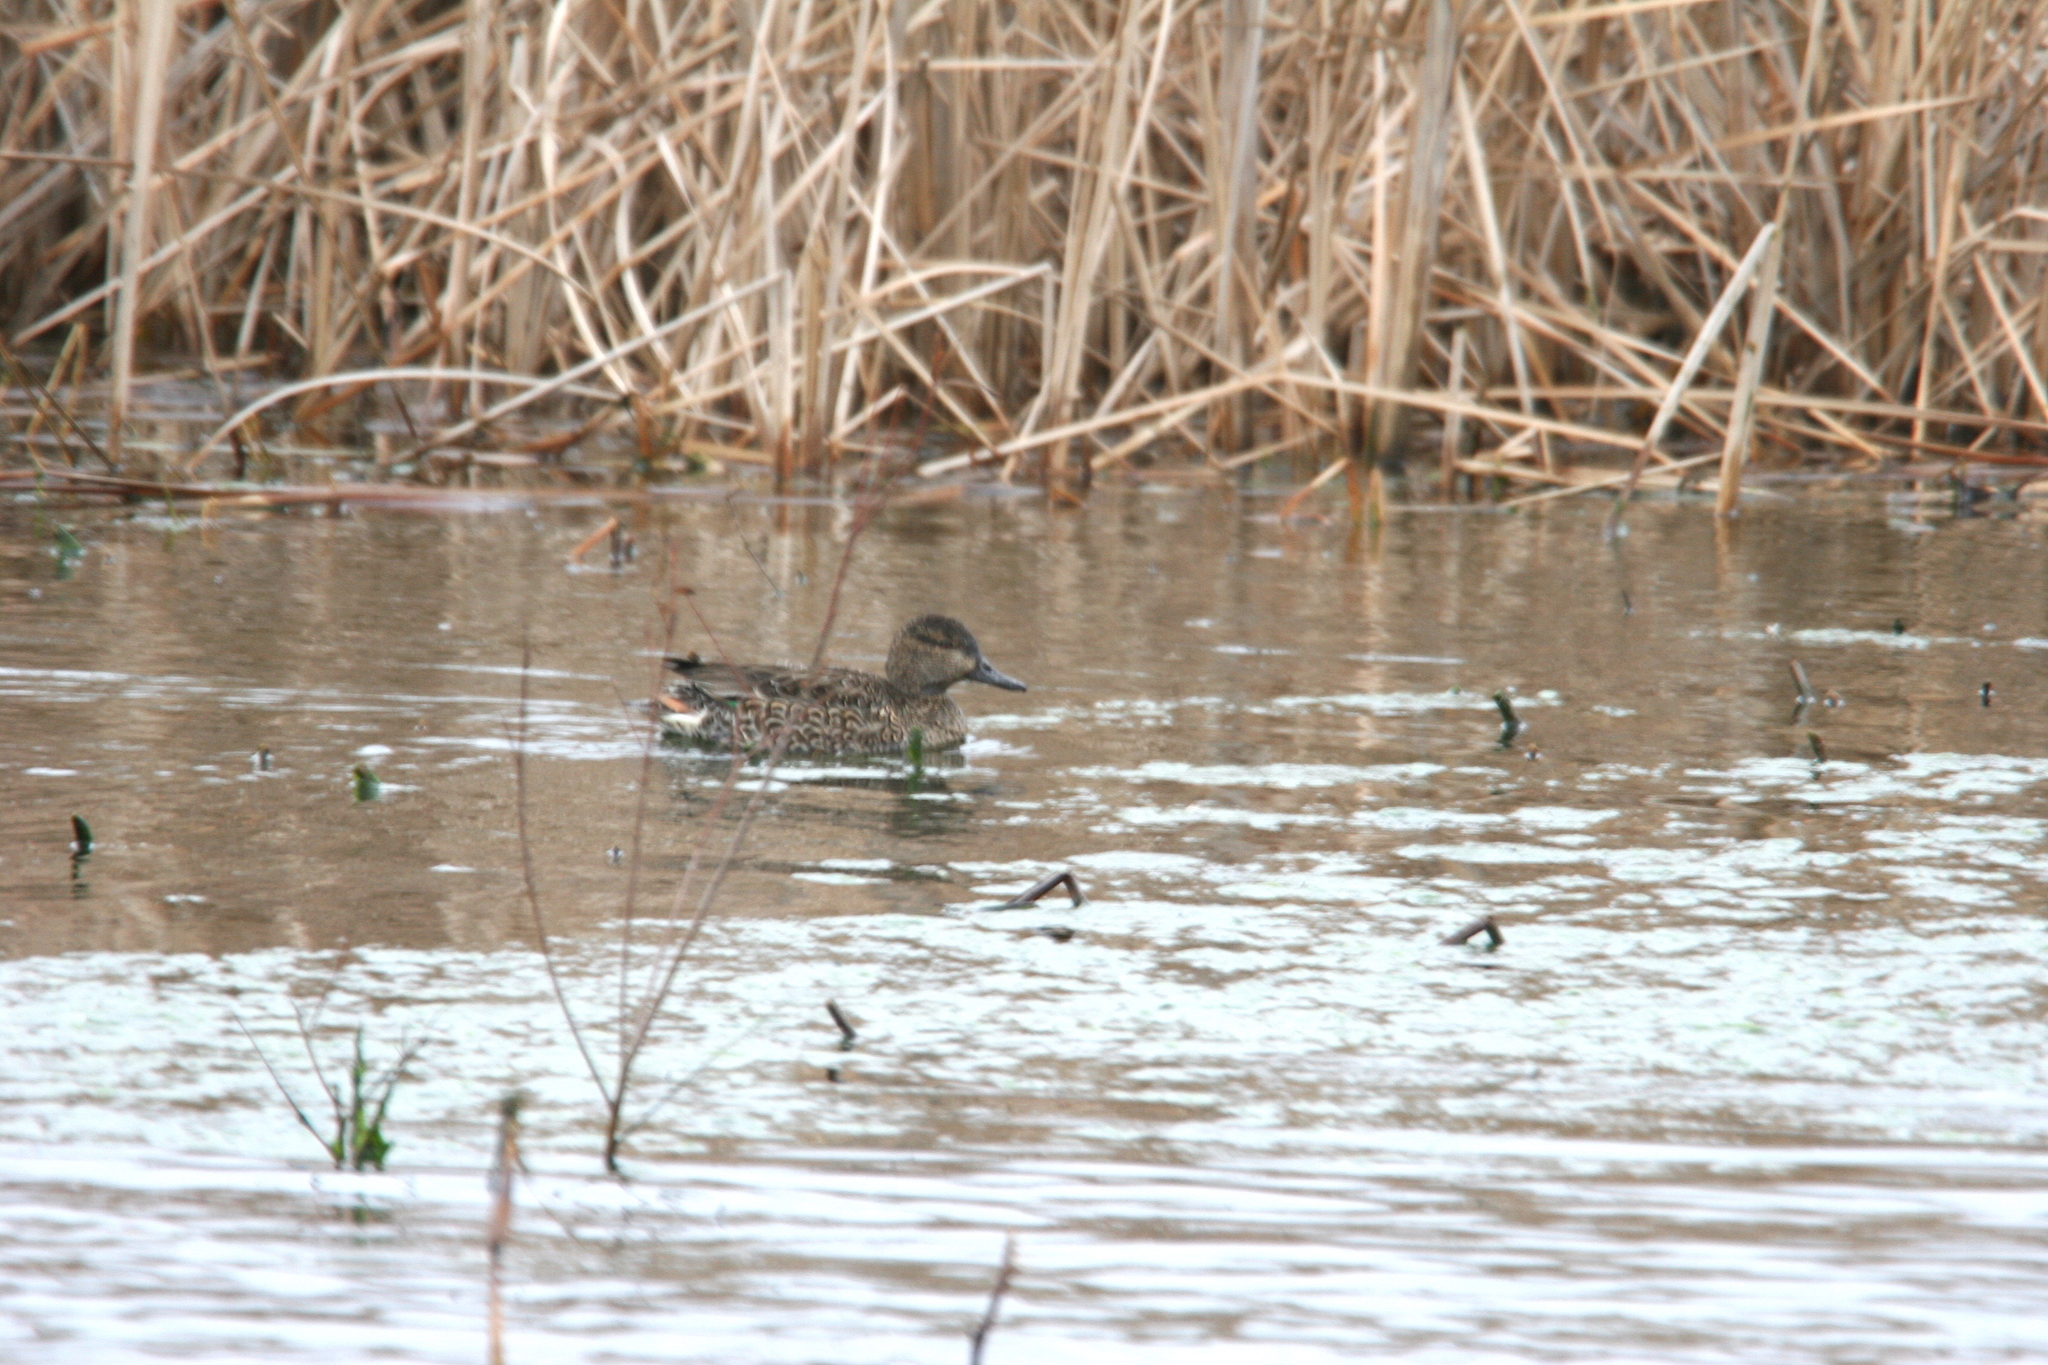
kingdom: Animalia
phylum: Chordata
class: Aves
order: Anseriformes
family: Anatidae
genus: Anas
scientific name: Anas crecca
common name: Eurasian teal
